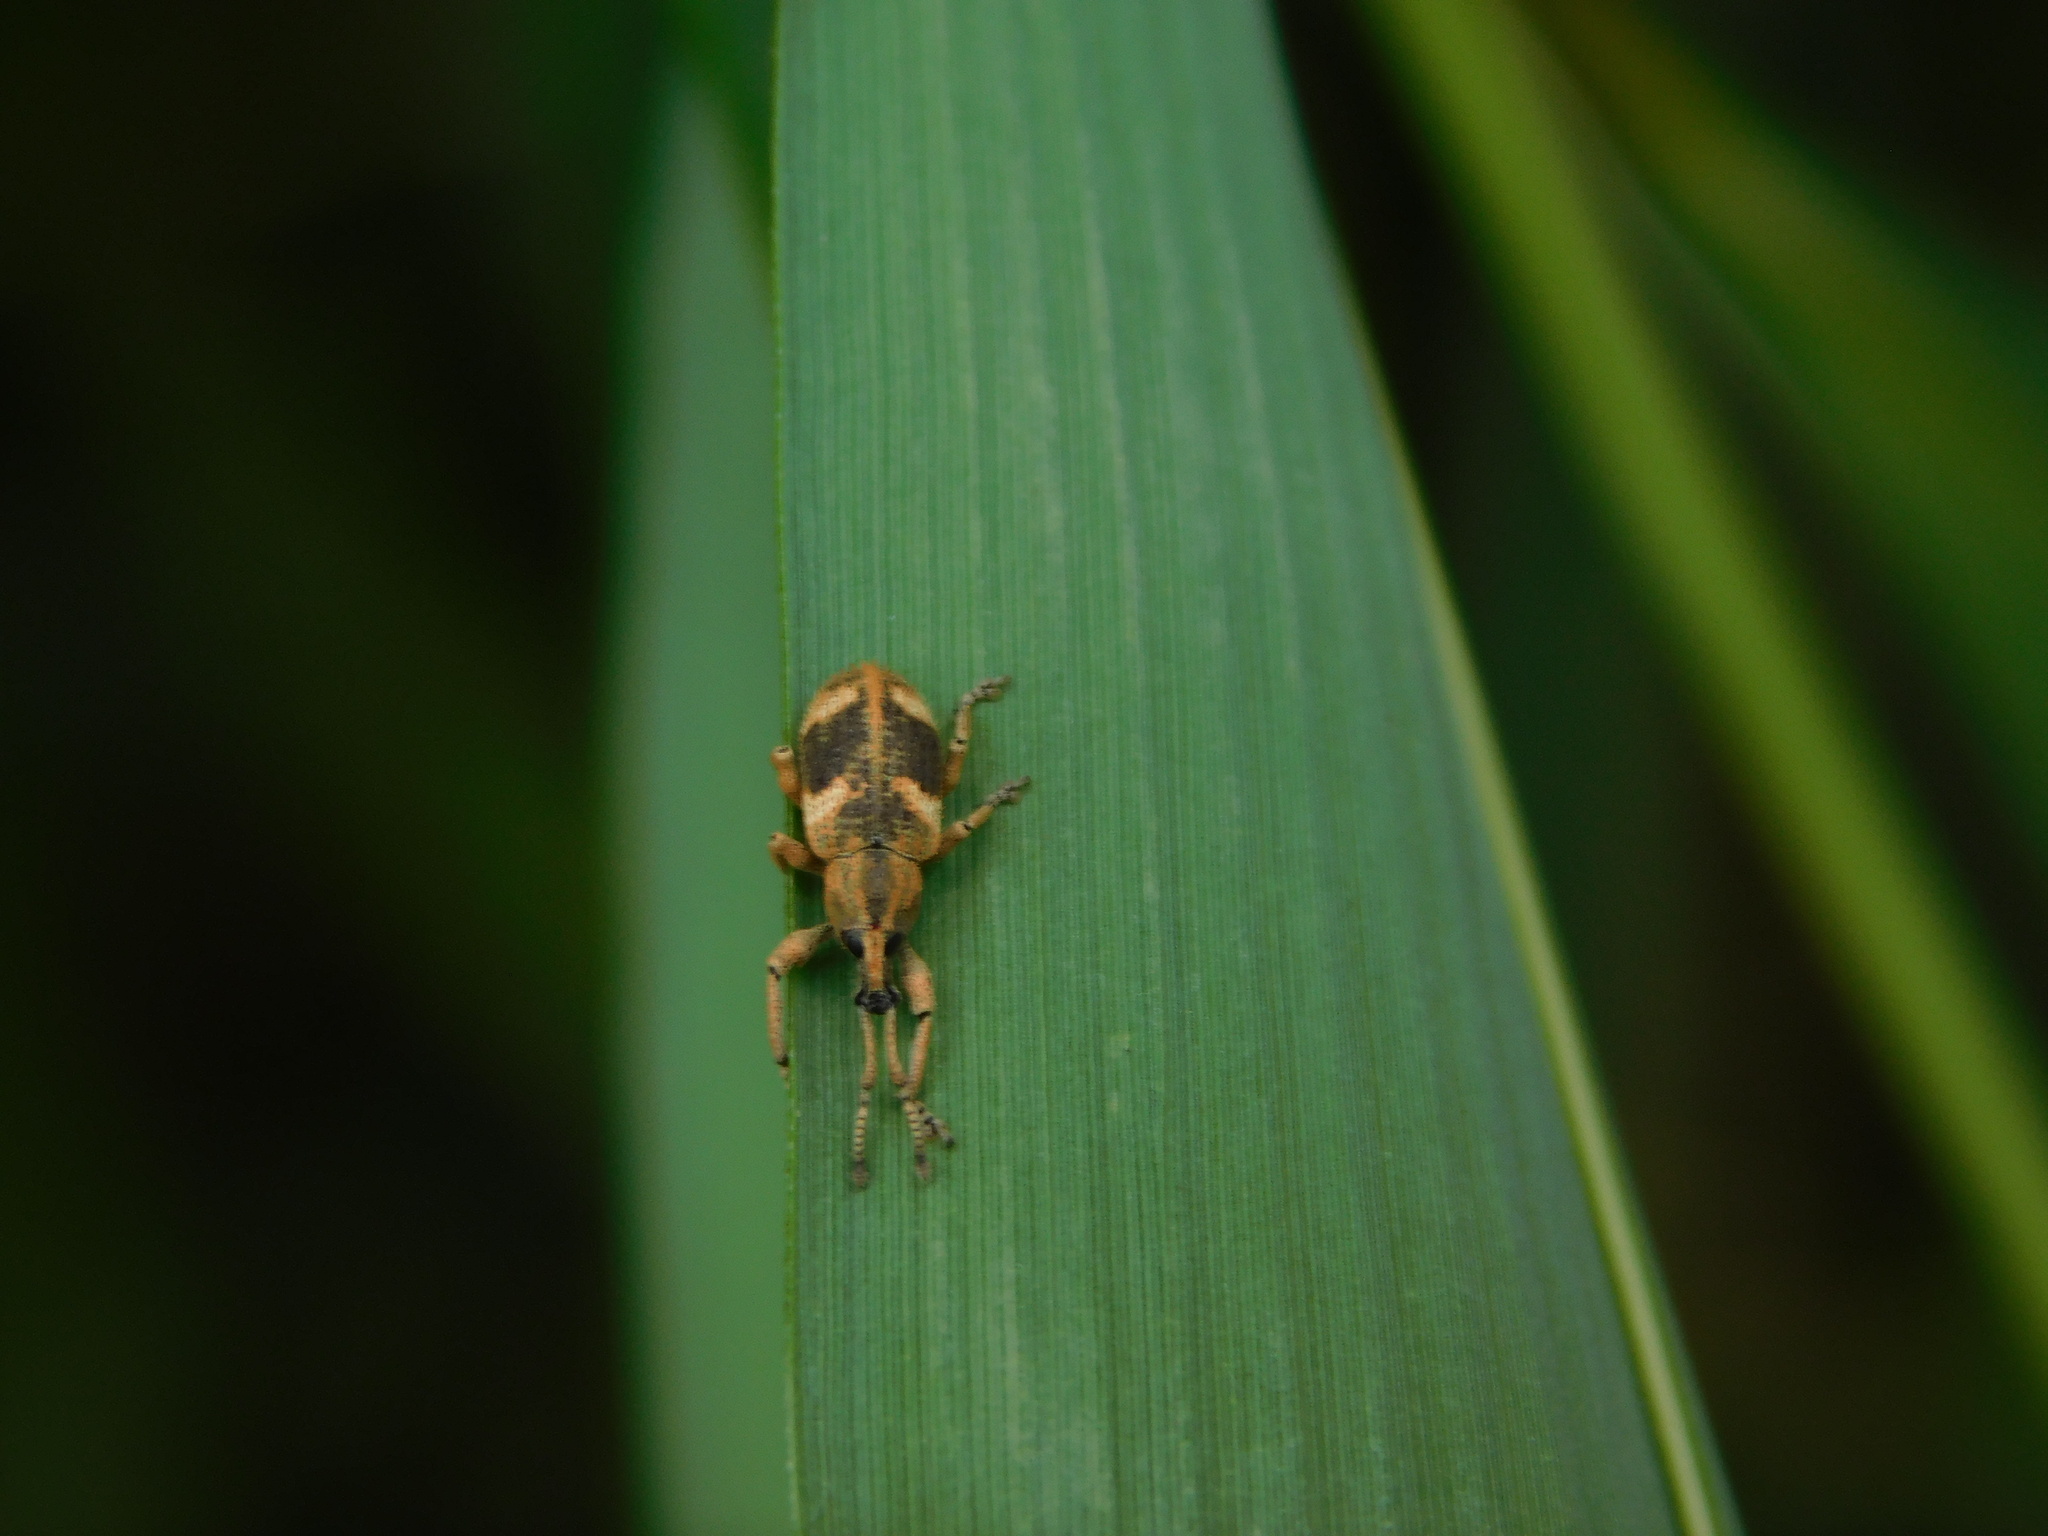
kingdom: Animalia
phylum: Arthropoda
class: Insecta
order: Coleoptera
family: Curculionidae
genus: Phytoscaphus
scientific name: Phytoscaphus triangularis
